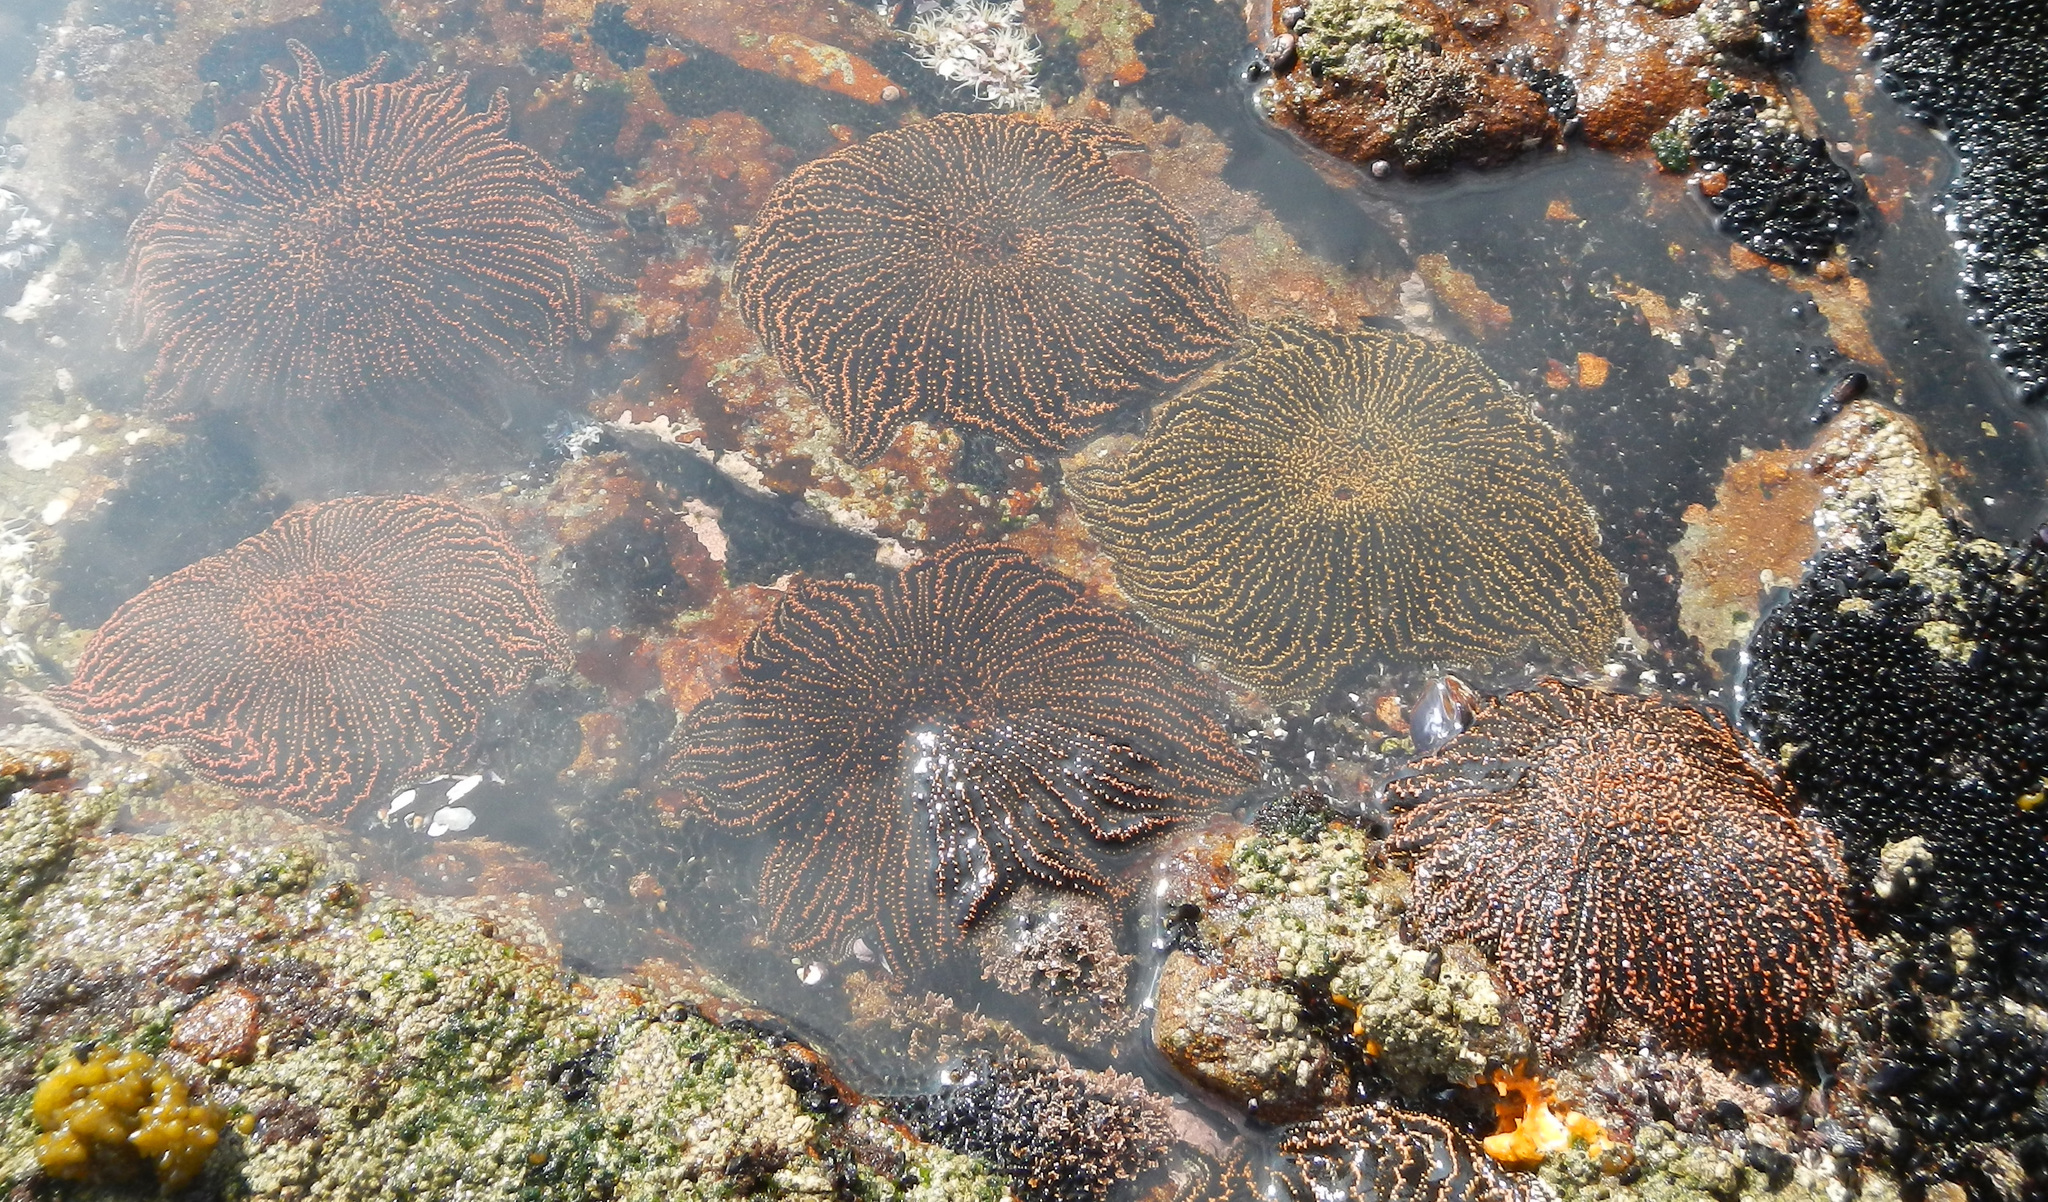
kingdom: Animalia
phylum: Echinodermata
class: Asteroidea
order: Forcipulatida
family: Heliasteridae
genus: Heliaster
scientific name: Heliaster helianthus
